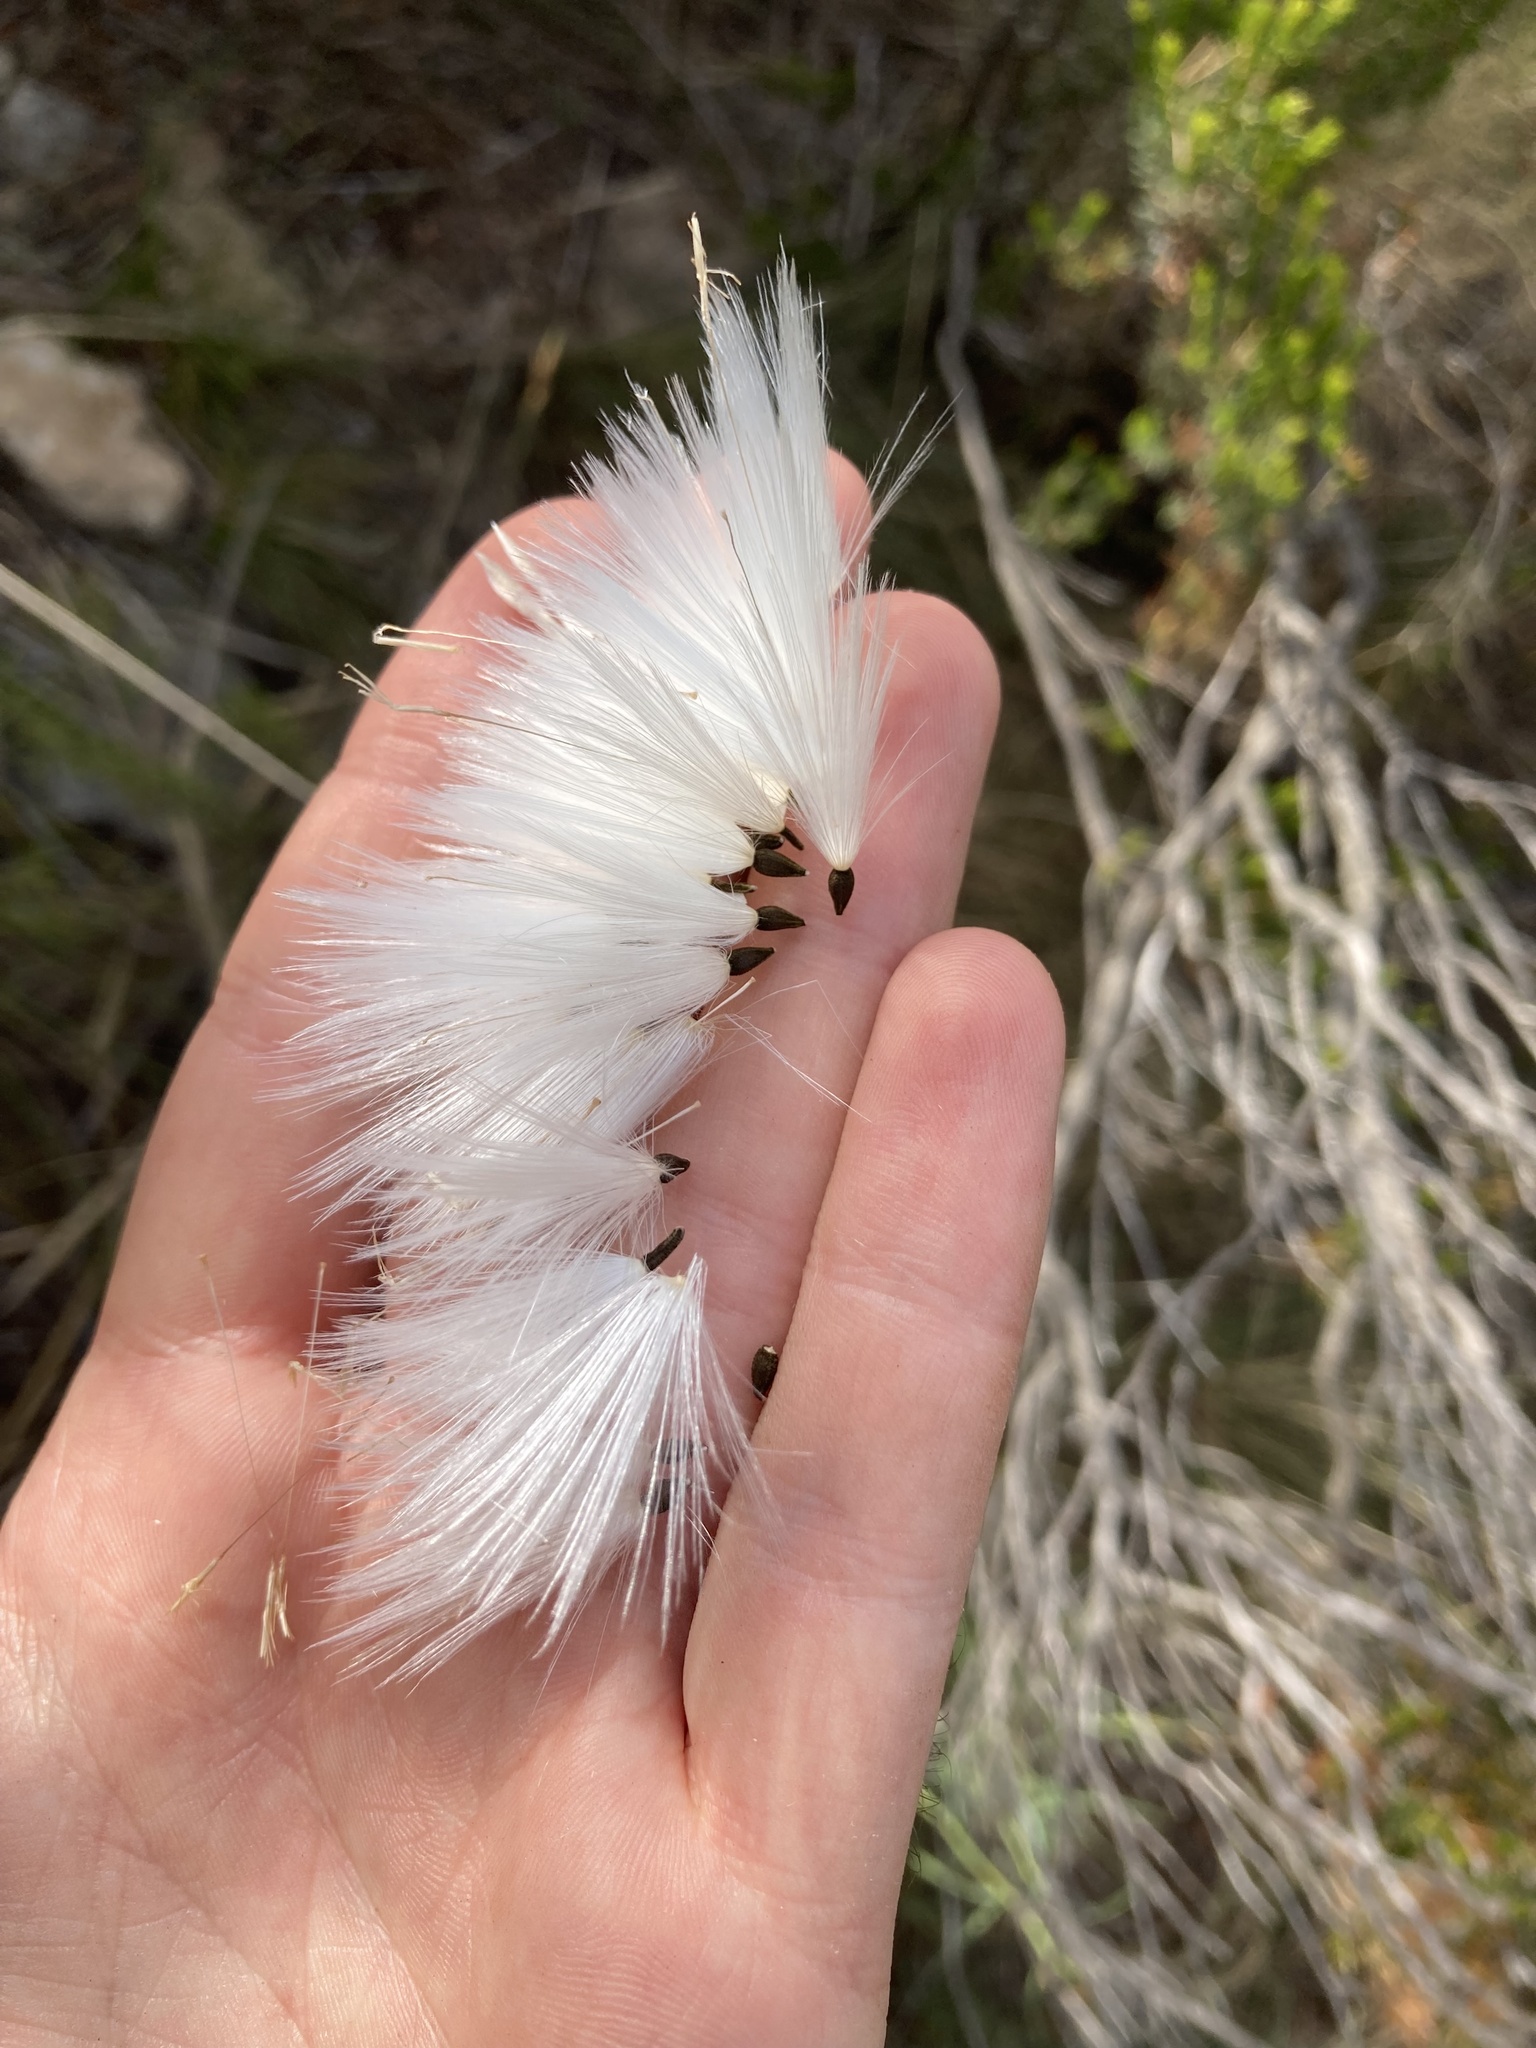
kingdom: Plantae
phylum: Tracheophyta
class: Magnoliopsida
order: Asterales
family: Asteraceae
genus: Leuzea
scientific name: Leuzea conifera
